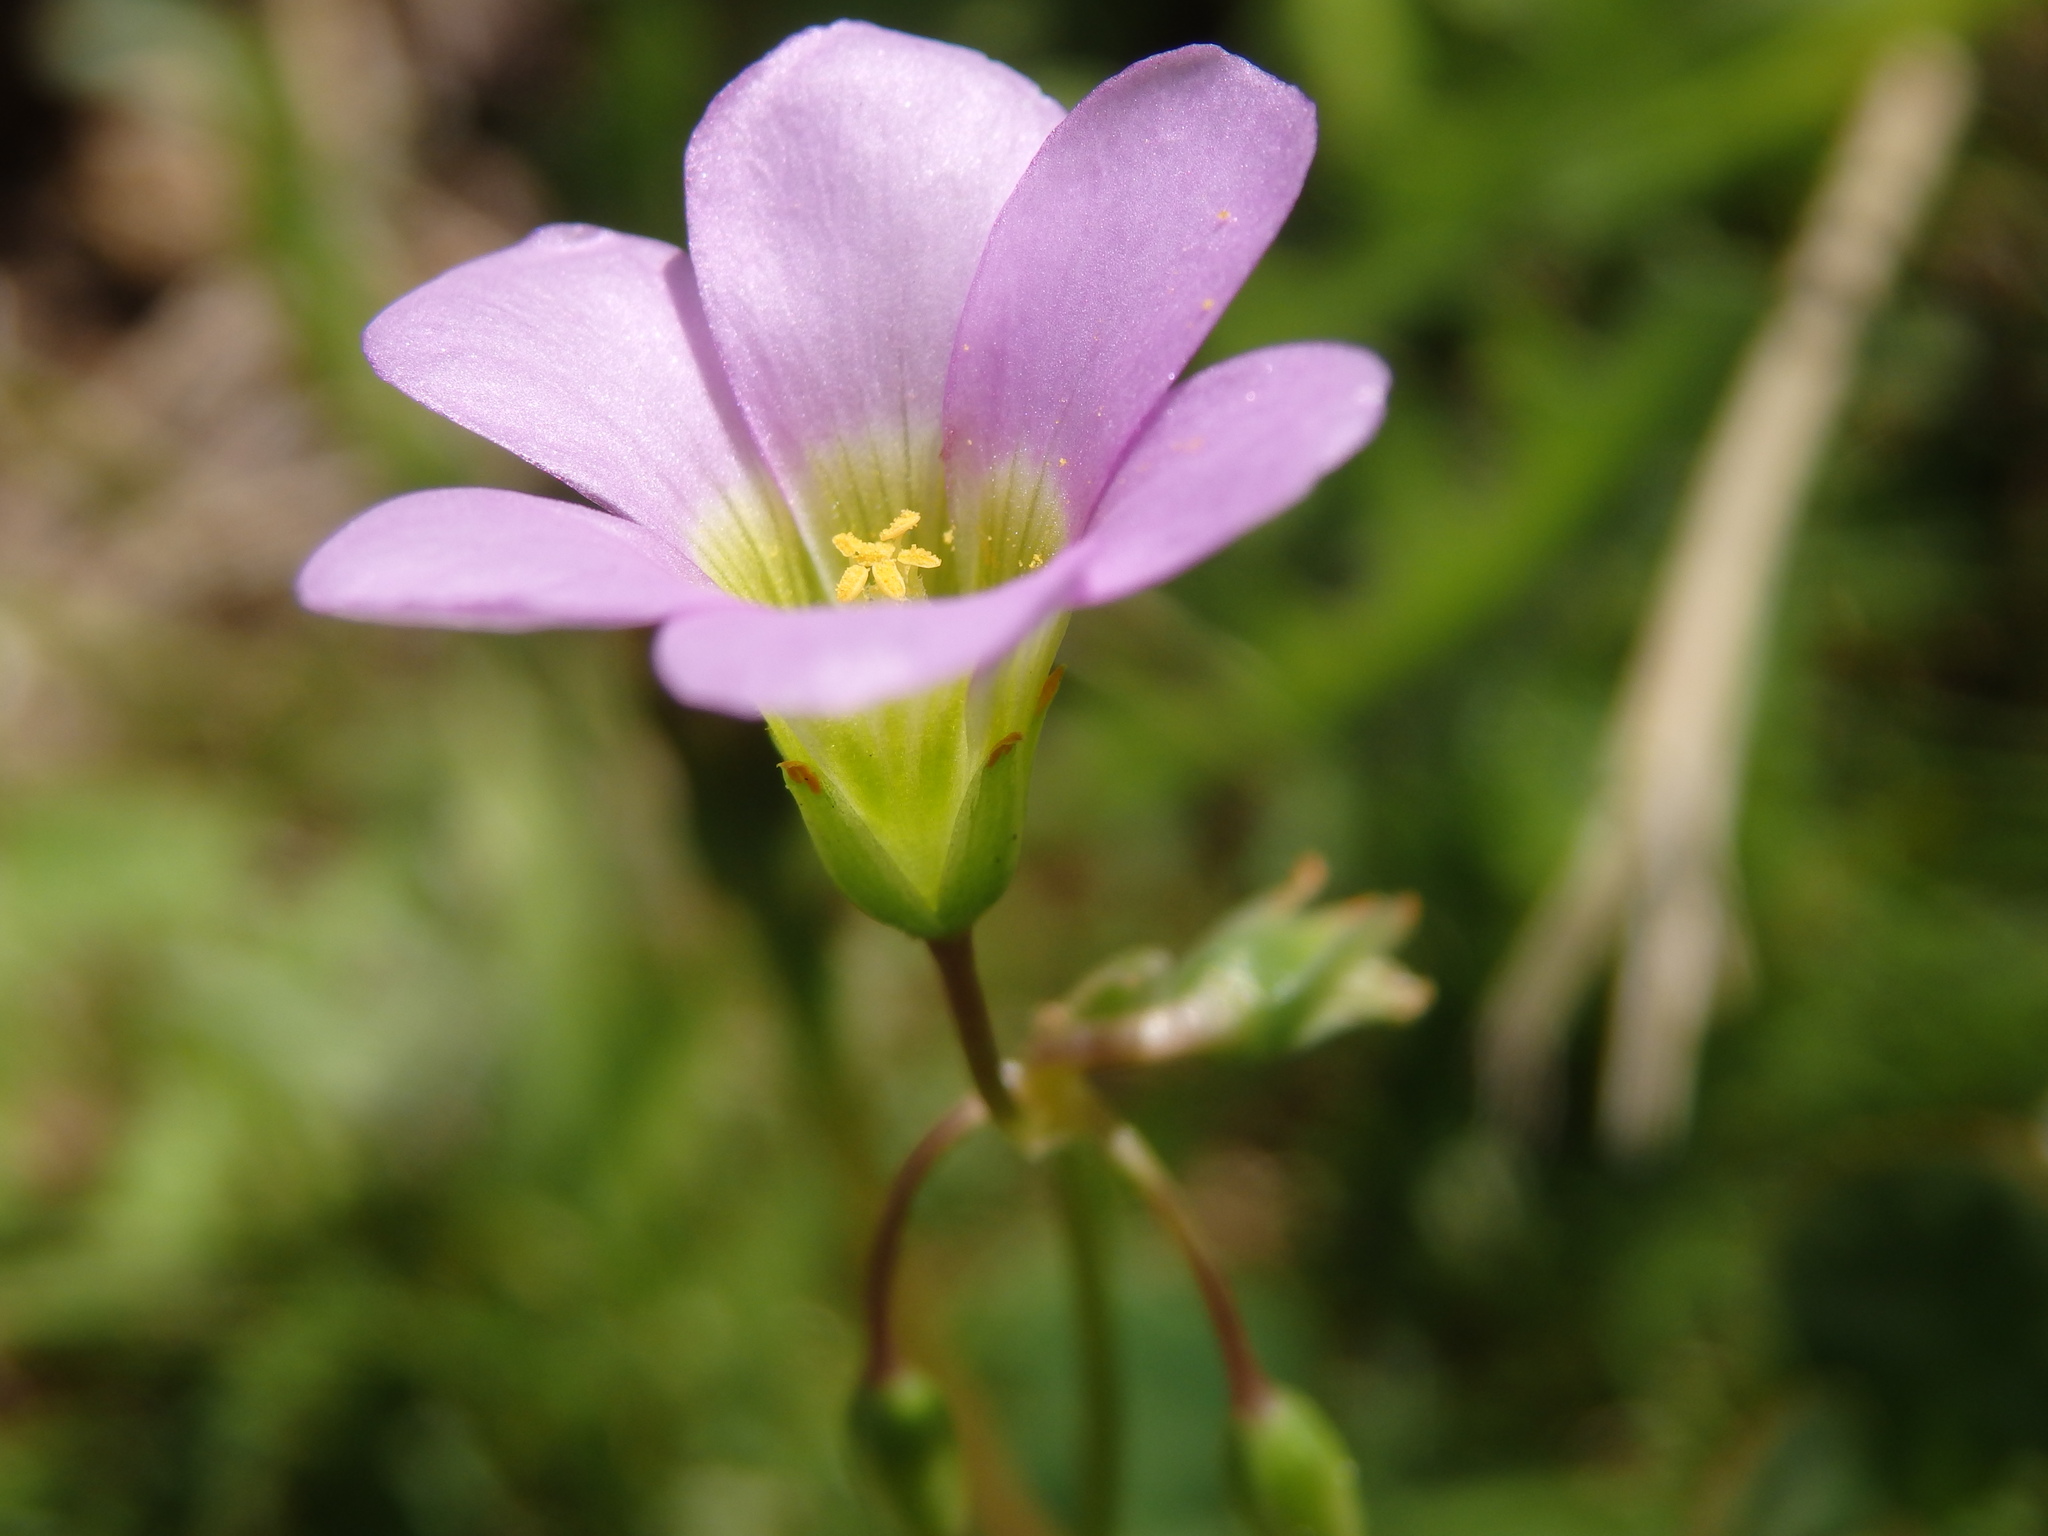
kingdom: Plantae
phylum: Tracheophyta
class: Magnoliopsida
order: Oxalidales
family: Oxalidaceae
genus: Oxalis
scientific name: Oxalis latifolia
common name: Garden pink-sorrel
